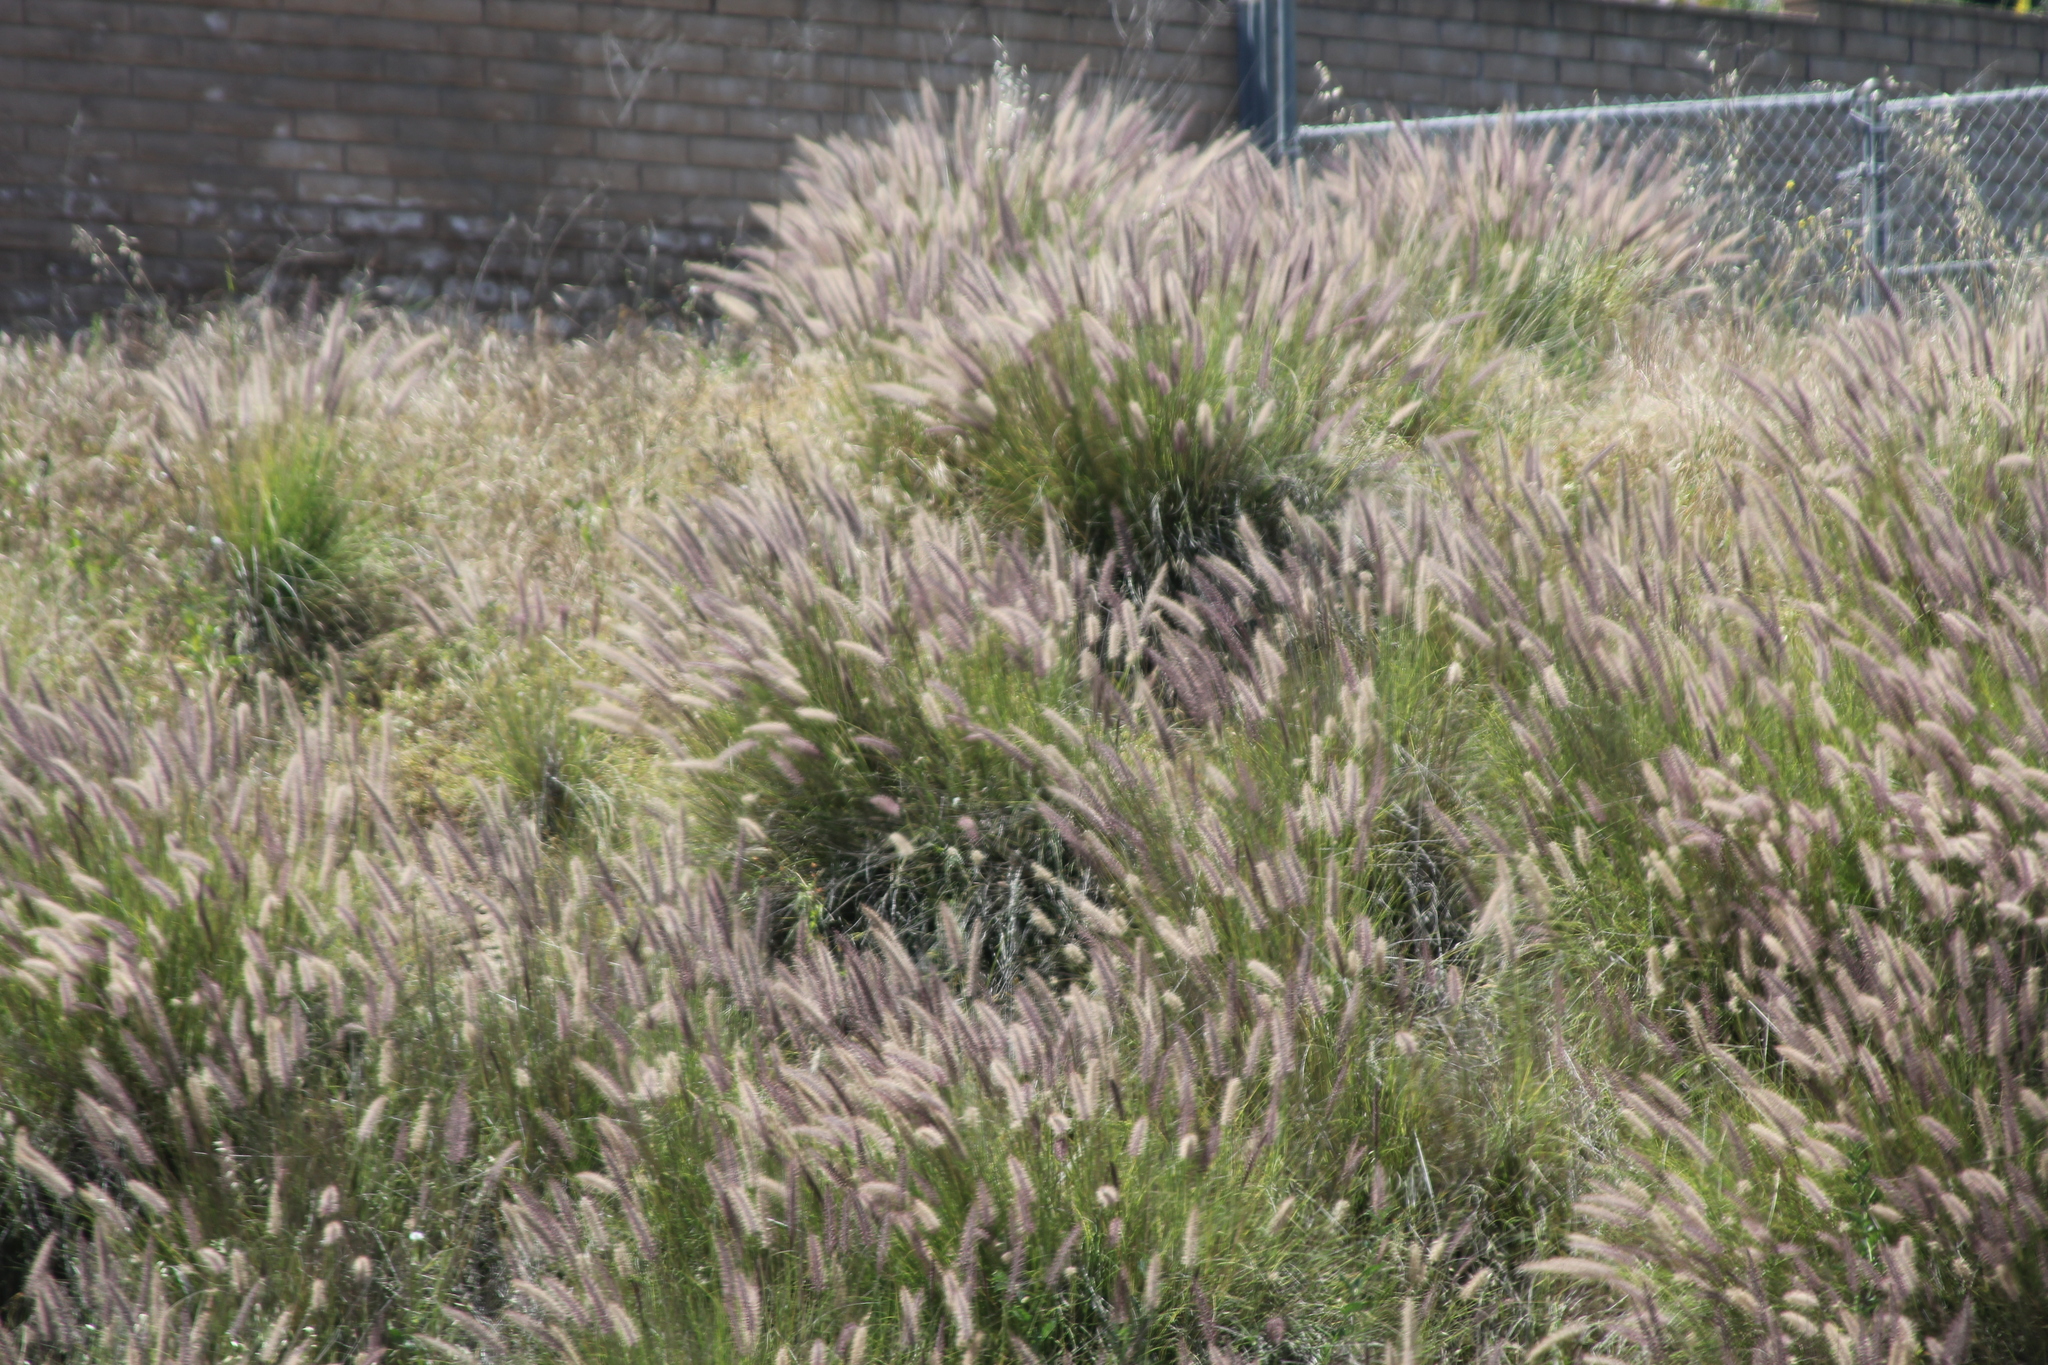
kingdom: Plantae
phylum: Tracheophyta
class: Liliopsida
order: Poales
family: Poaceae
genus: Cenchrus
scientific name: Cenchrus setaceus
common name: Crimson fountaingrass
